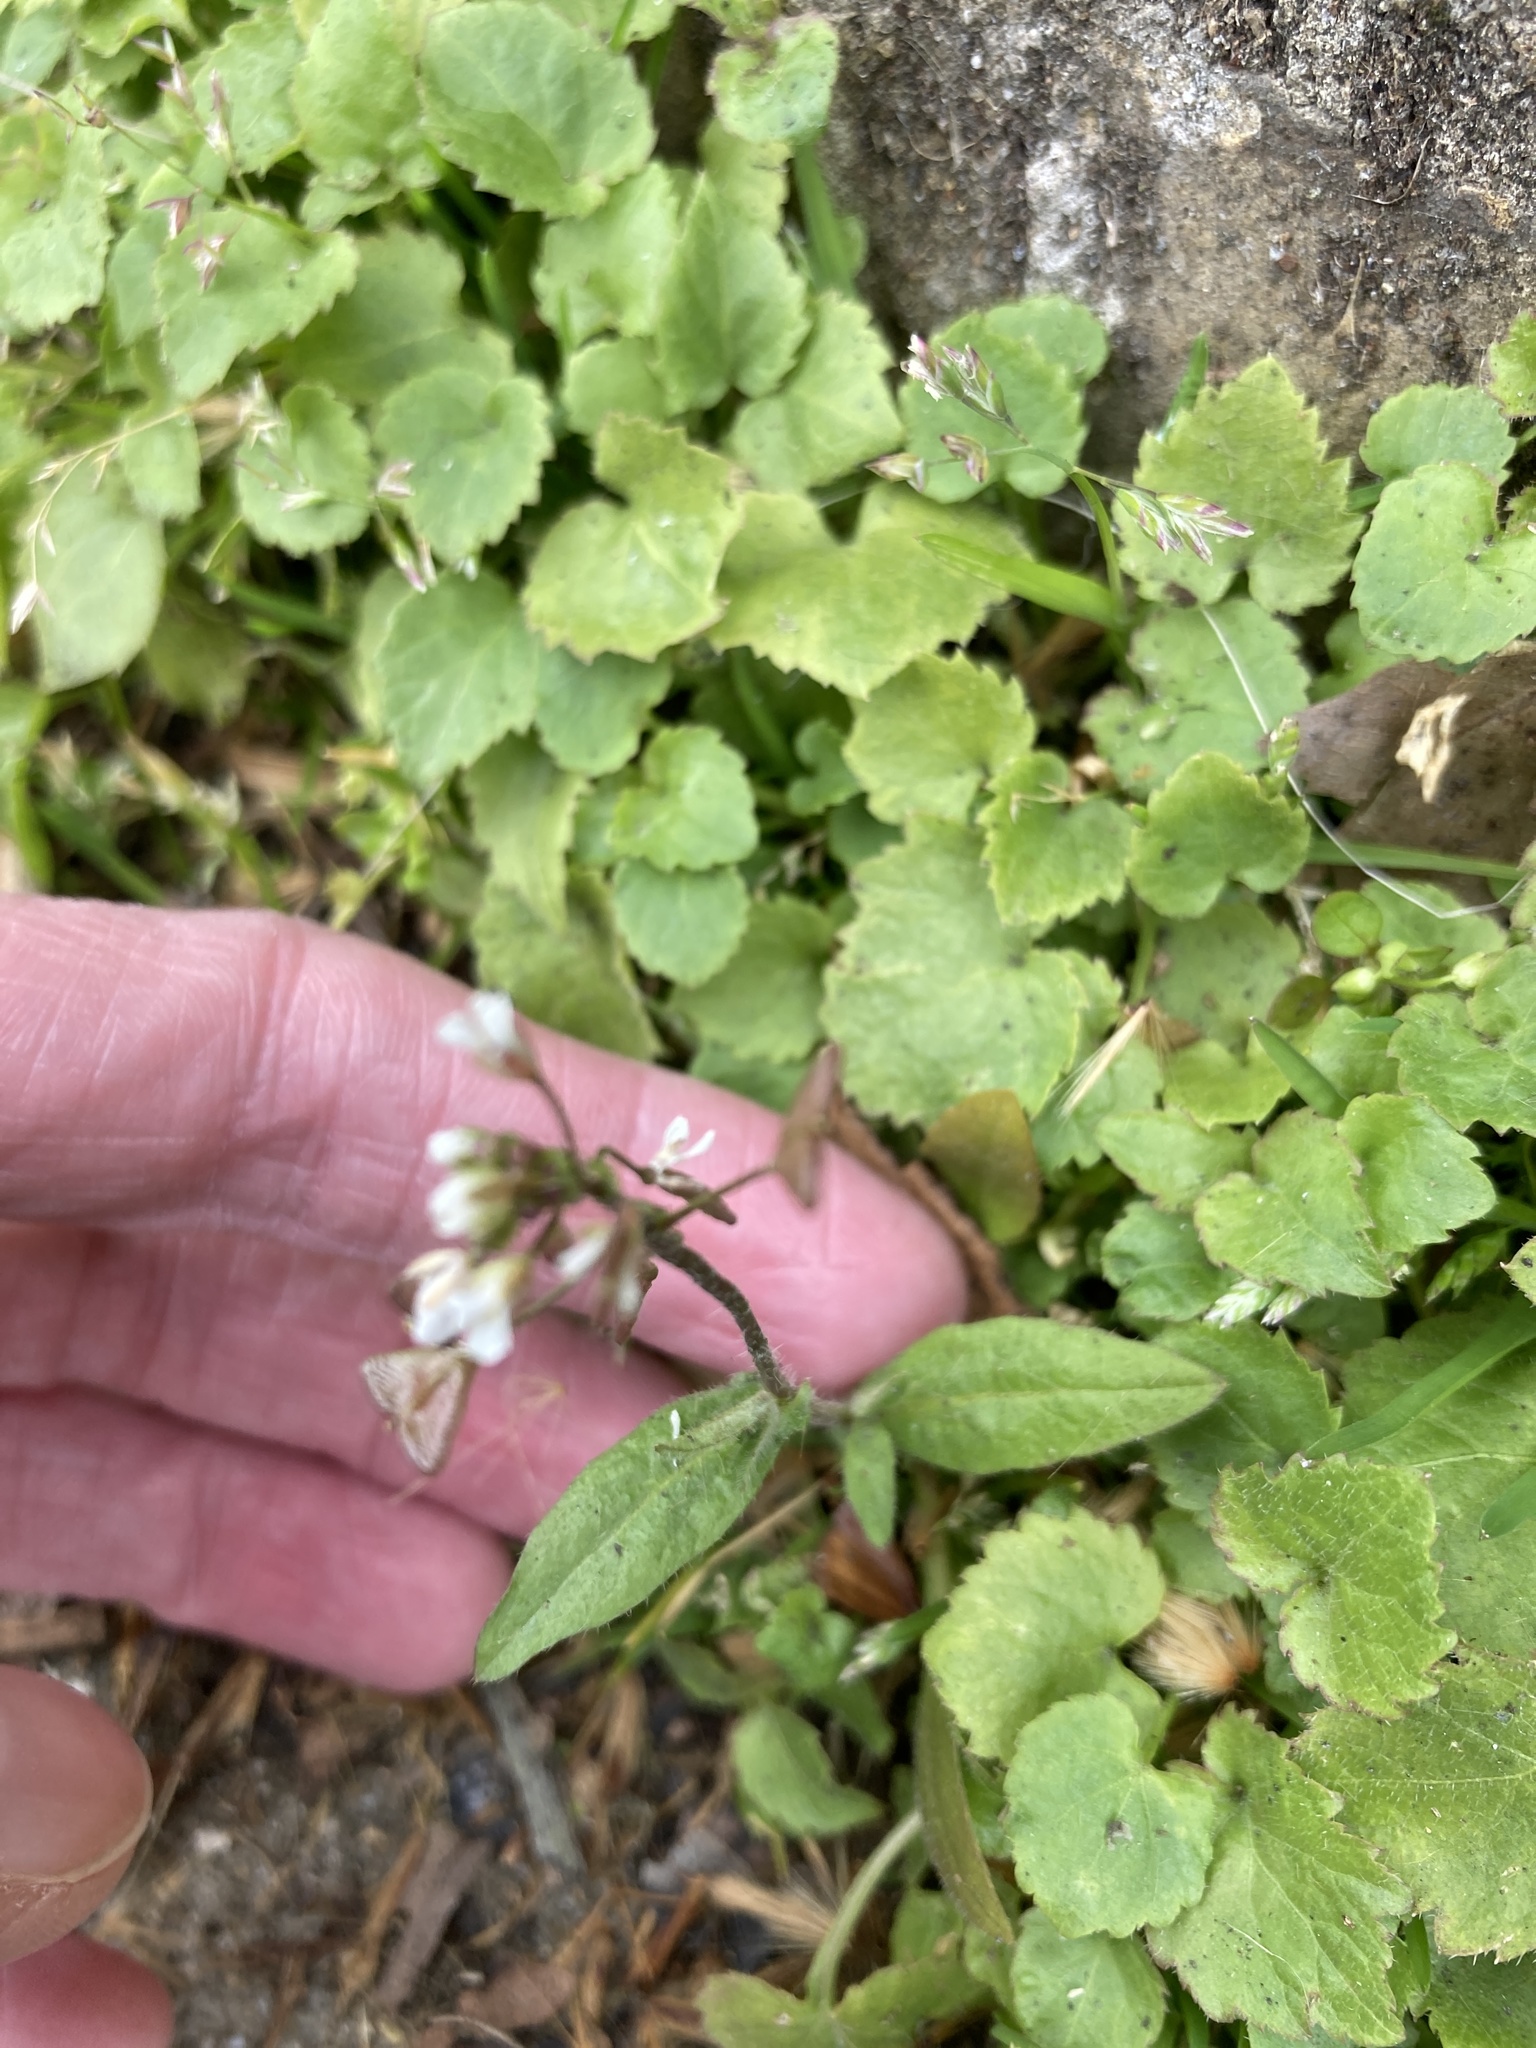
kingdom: Plantae
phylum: Tracheophyta
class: Magnoliopsida
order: Brassicales
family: Brassicaceae
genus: Capsella
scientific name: Capsella bursa-pastoris
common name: Shepherd's purse
